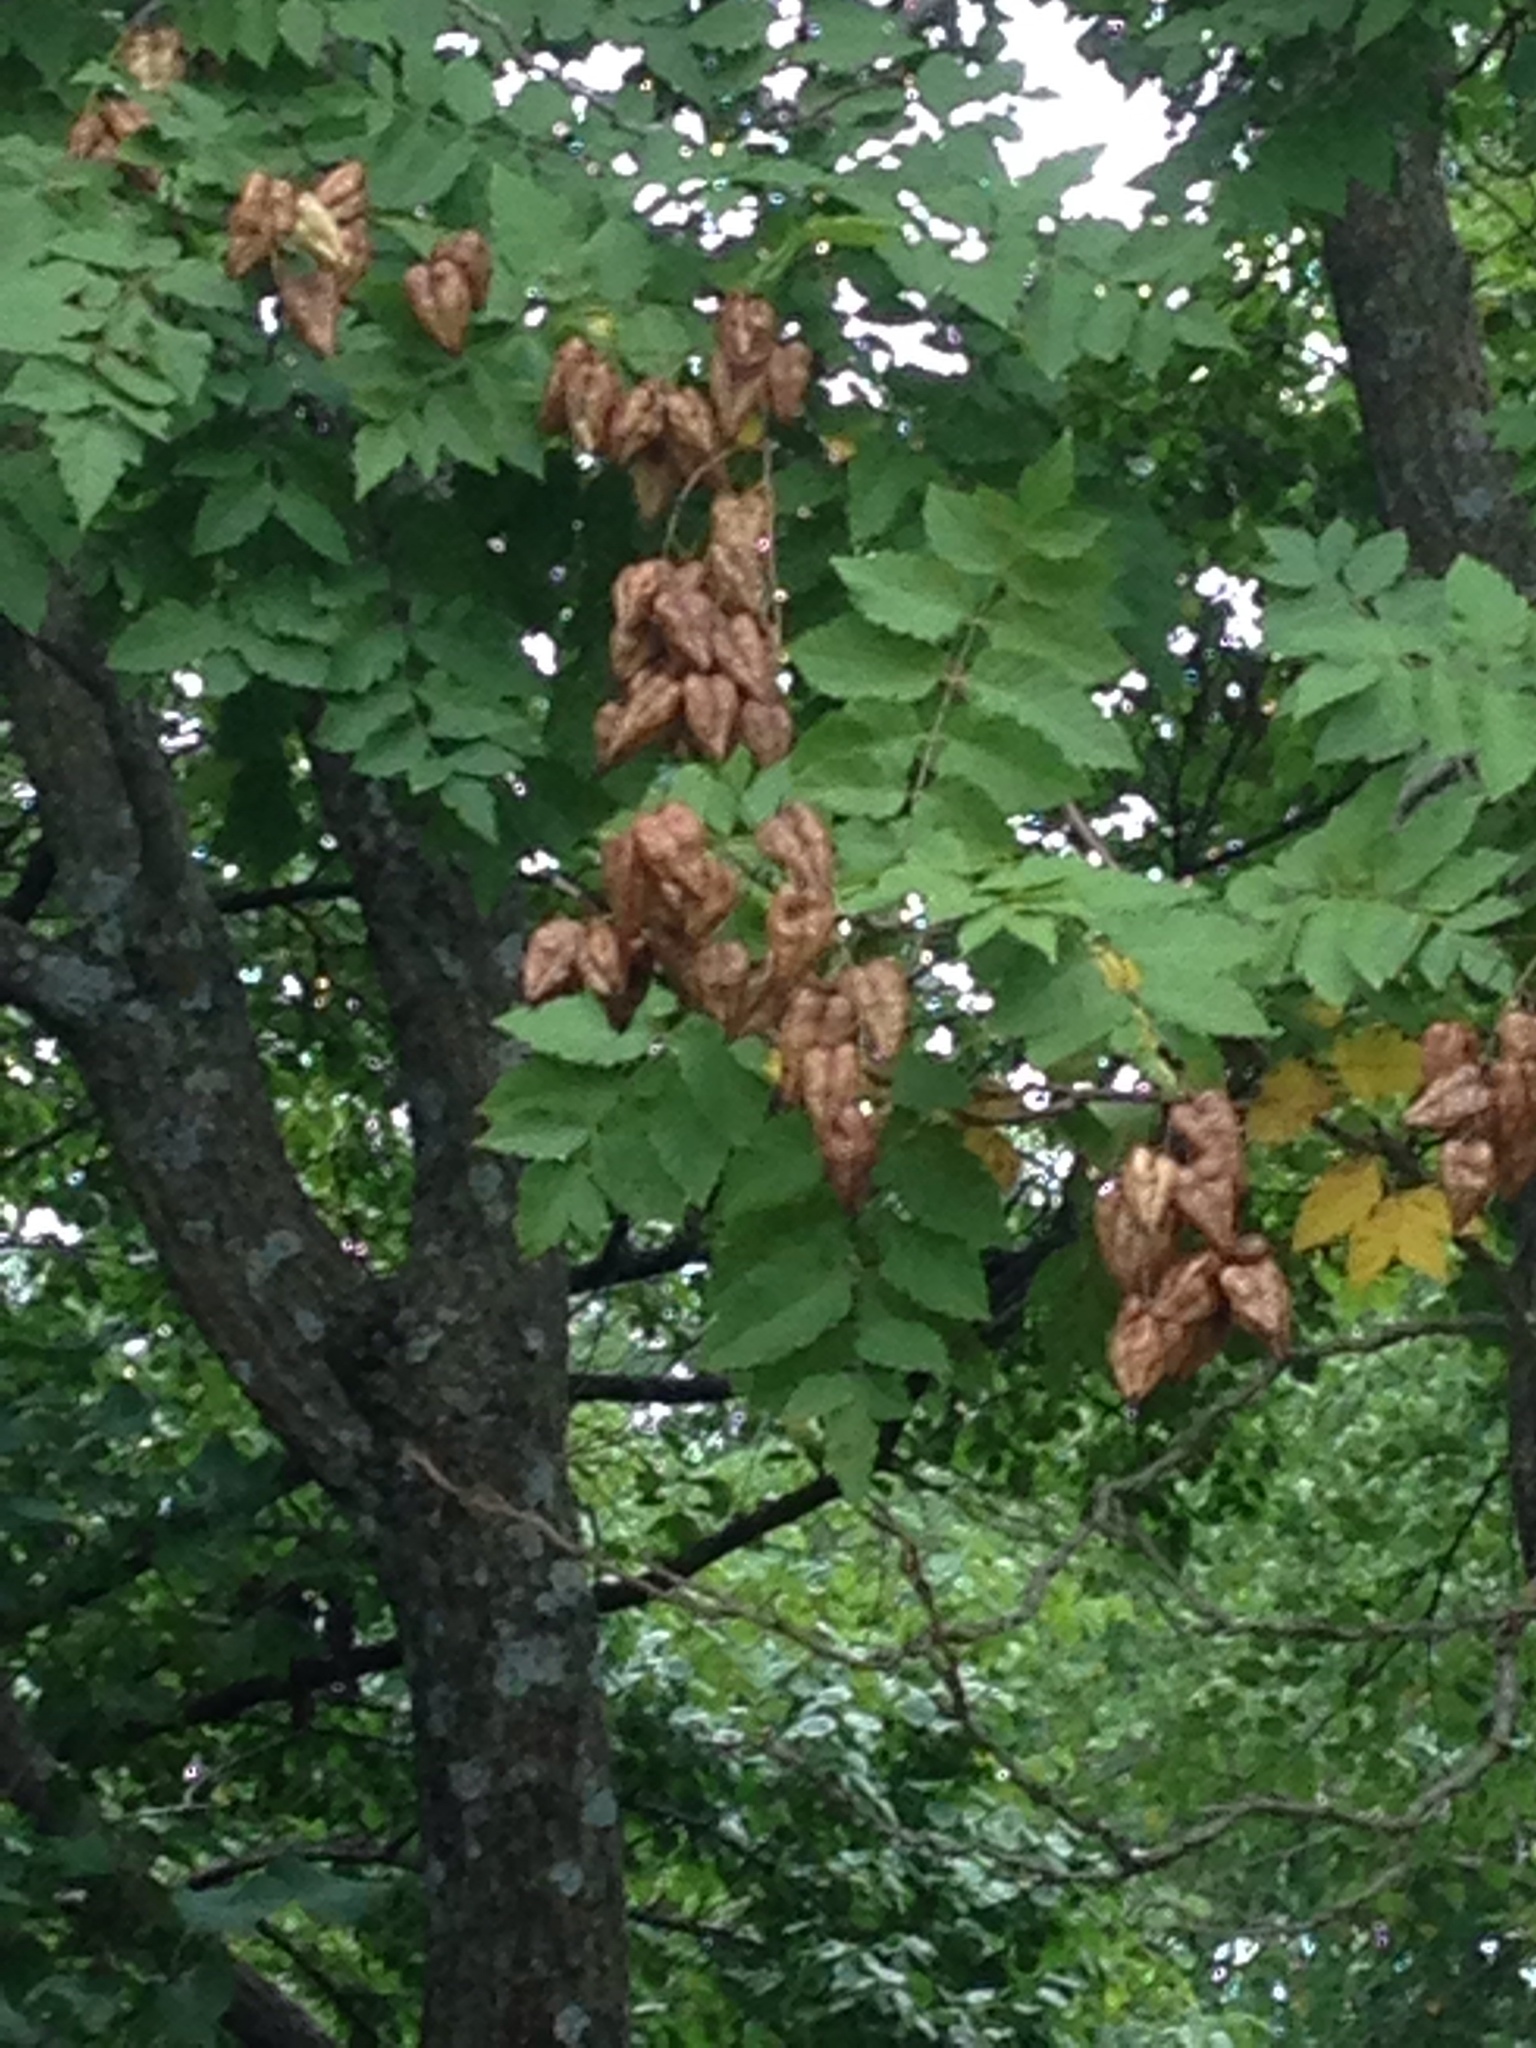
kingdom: Plantae
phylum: Tracheophyta
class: Magnoliopsida
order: Sapindales
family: Sapindaceae
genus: Koelreuteria
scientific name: Koelreuteria paniculata
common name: Pride-of-india
